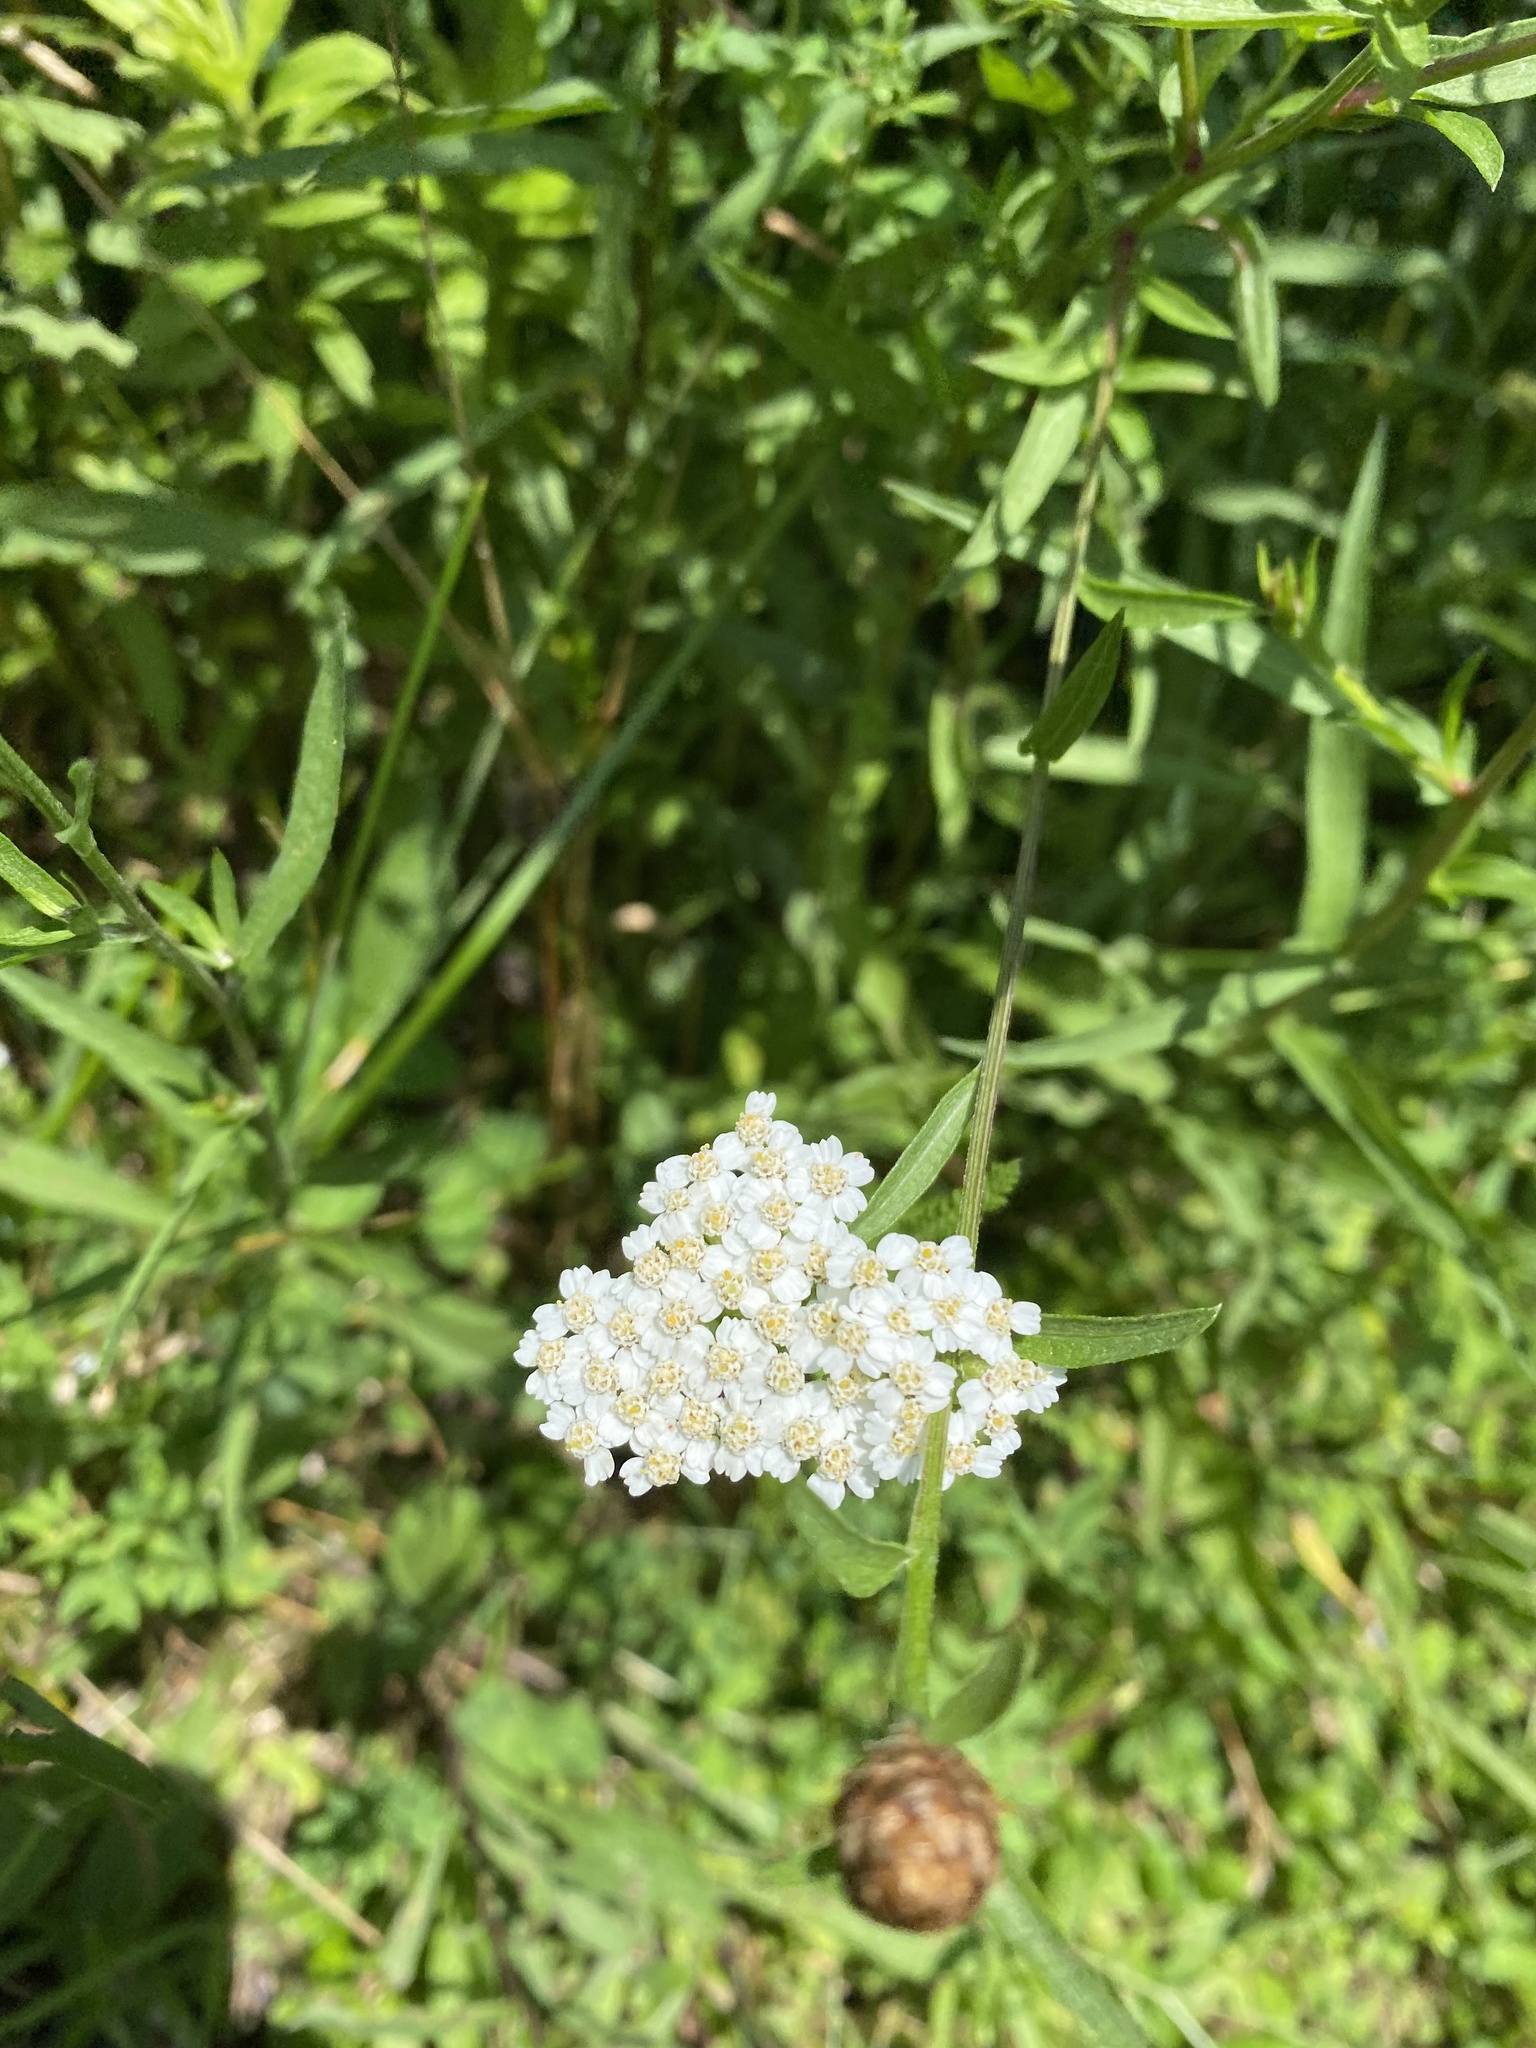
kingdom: Plantae
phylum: Tracheophyta
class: Magnoliopsida
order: Asterales
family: Asteraceae
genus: Achillea
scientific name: Achillea millefolium
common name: Yarrow
